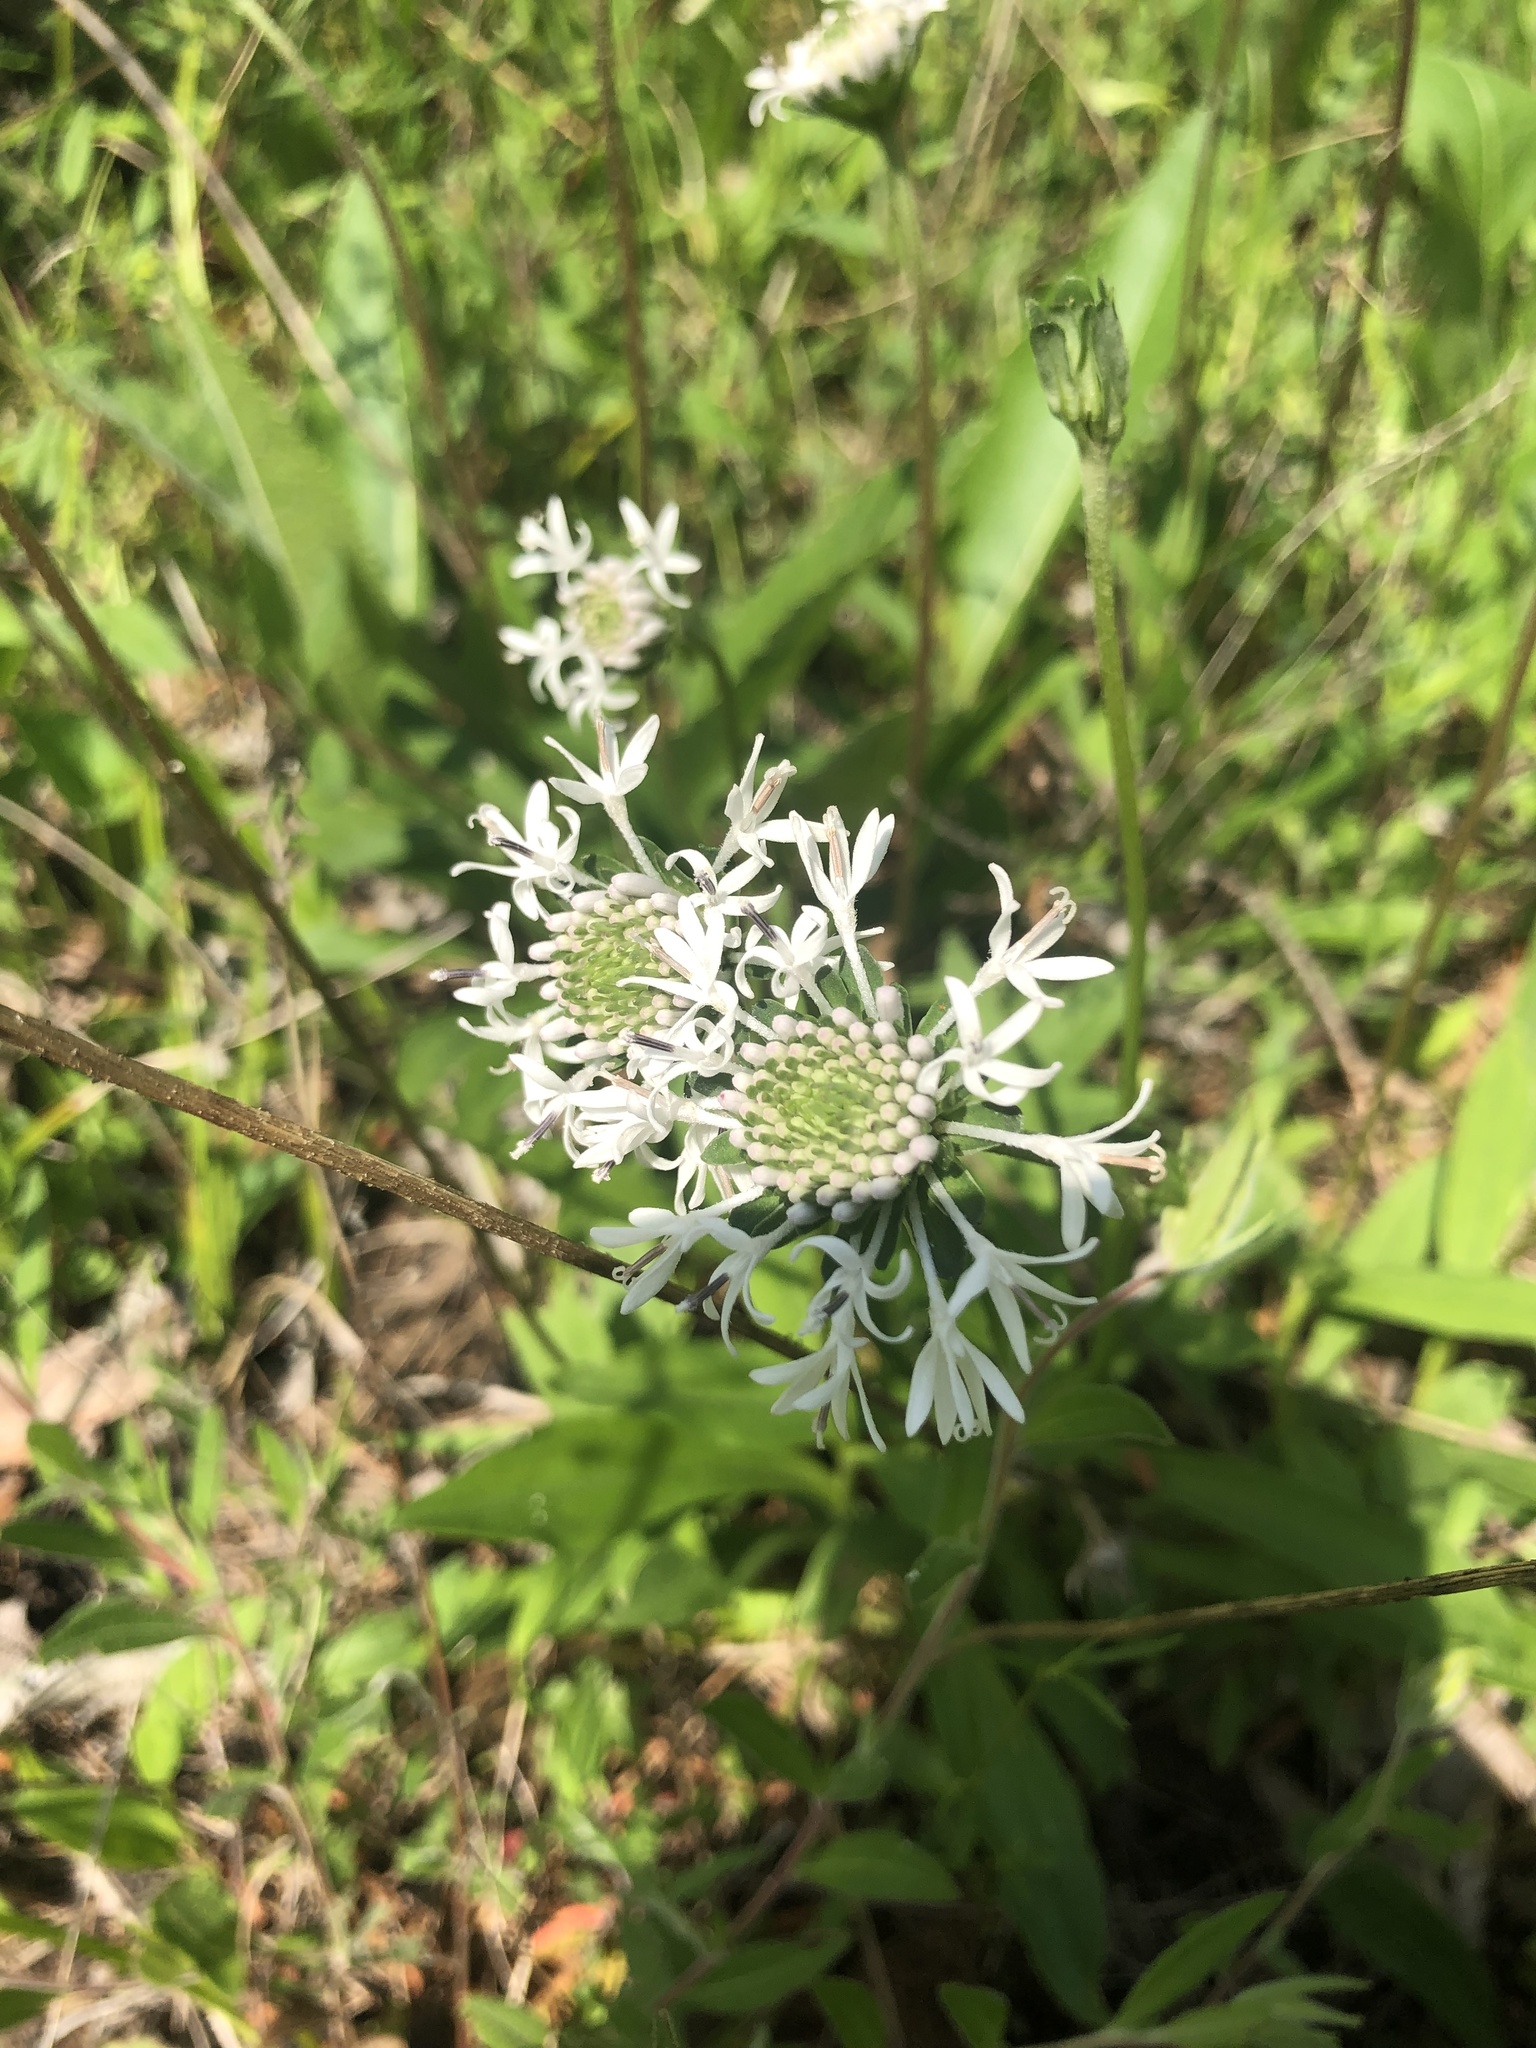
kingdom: Plantae
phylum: Tracheophyta
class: Magnoliopsida
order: Asterales
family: Asteraceae
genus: Marshallia
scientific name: Marshallia obovata
